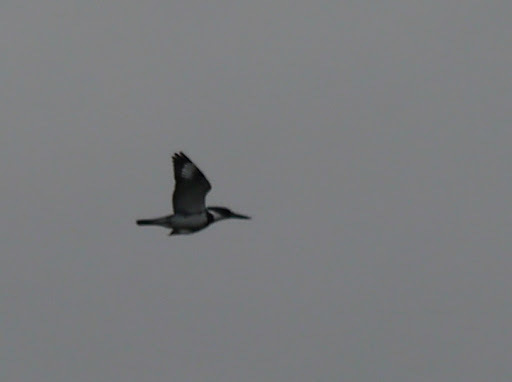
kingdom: Animalia
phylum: Chordata
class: Aves
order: Coraciiformes
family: Alcedinidae
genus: Megaceryle
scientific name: Megaceryle alcyon
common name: Belted kingfisher
